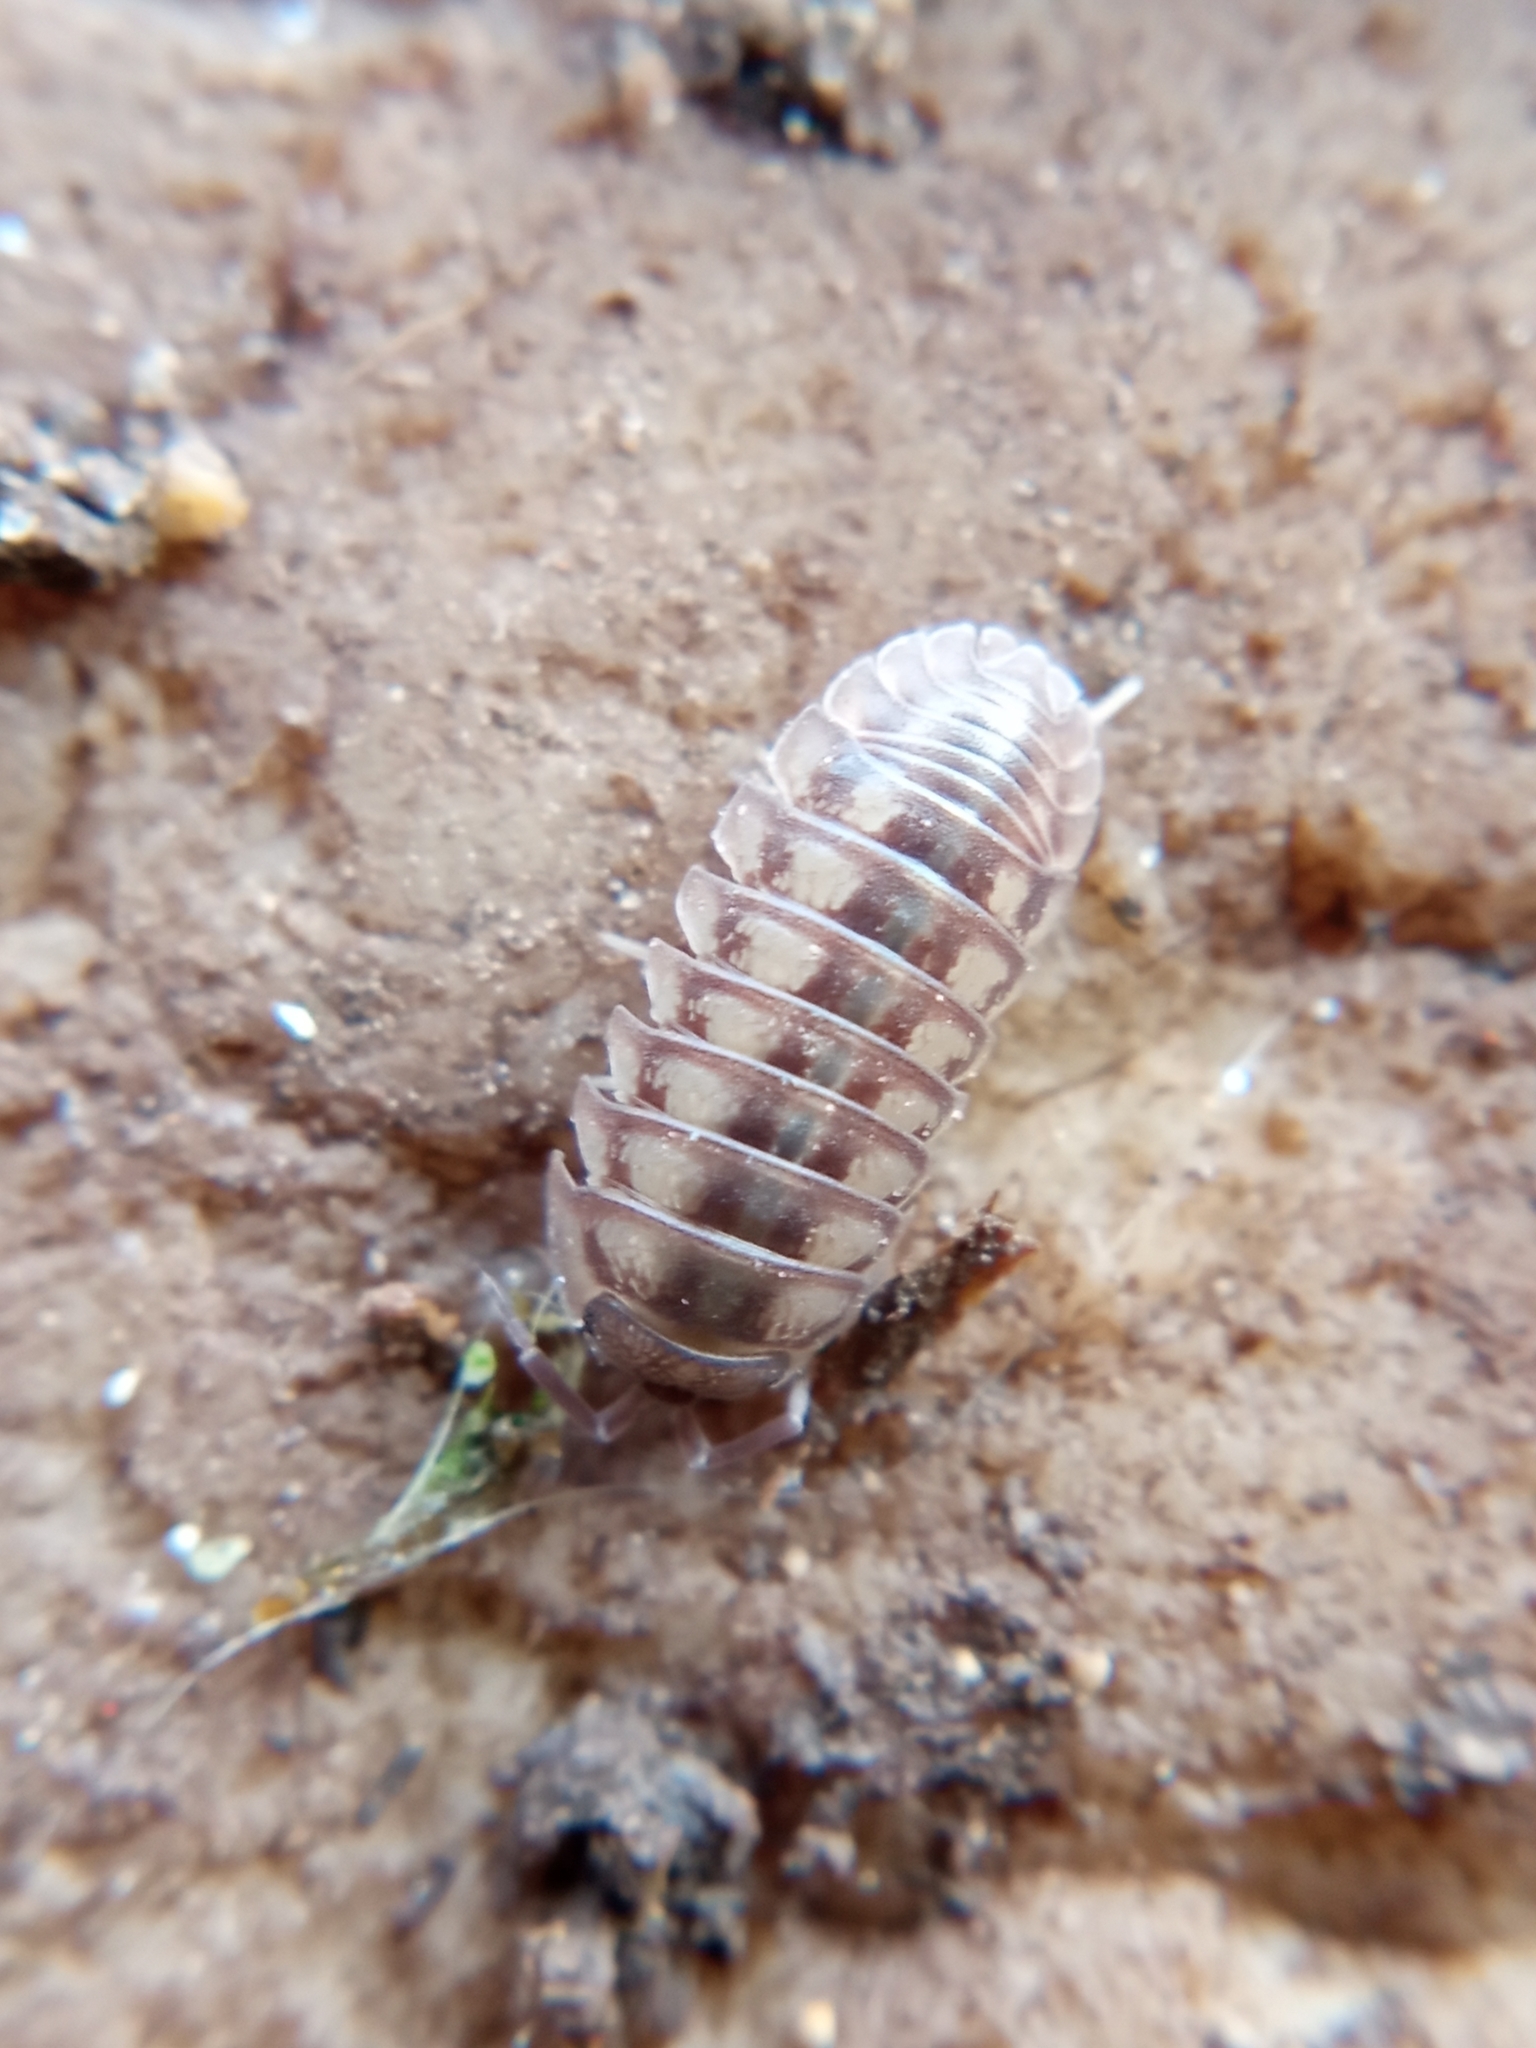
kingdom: Animalia
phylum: Arthropoda
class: Malacostraca
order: Isopoda
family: Armadillidiidae
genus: Armadillidium
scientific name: Armadillidium nasatum
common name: Isopod
